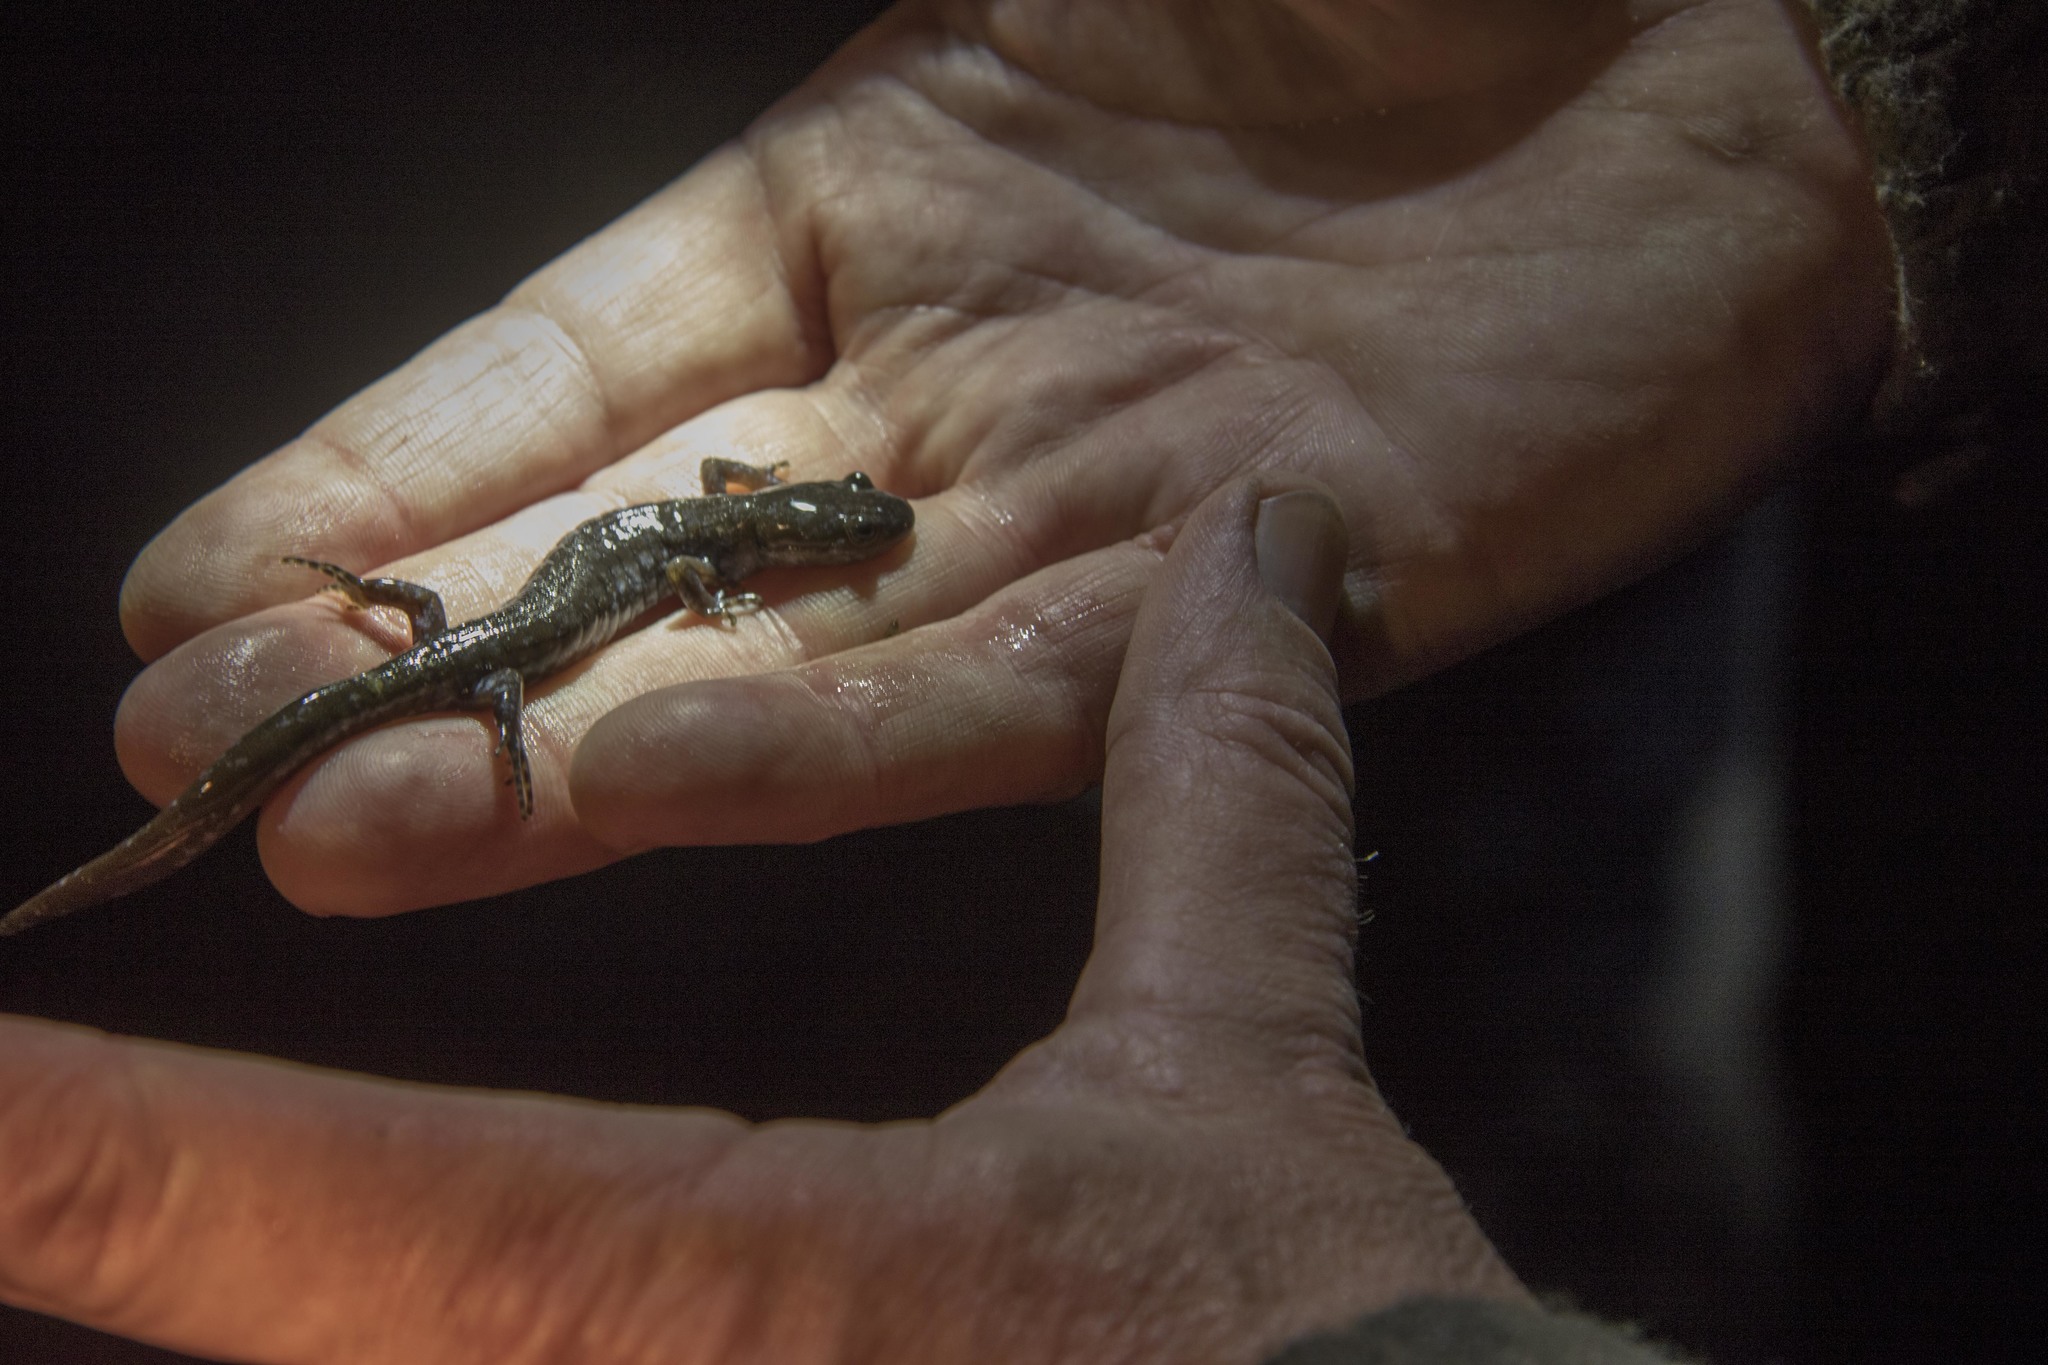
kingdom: Animalia
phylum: Chordata
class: Amphibia
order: Caudata
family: Ambystomatidae
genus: Ambystoma
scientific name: Ambystoma laterale
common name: Blue-spotted salamander
